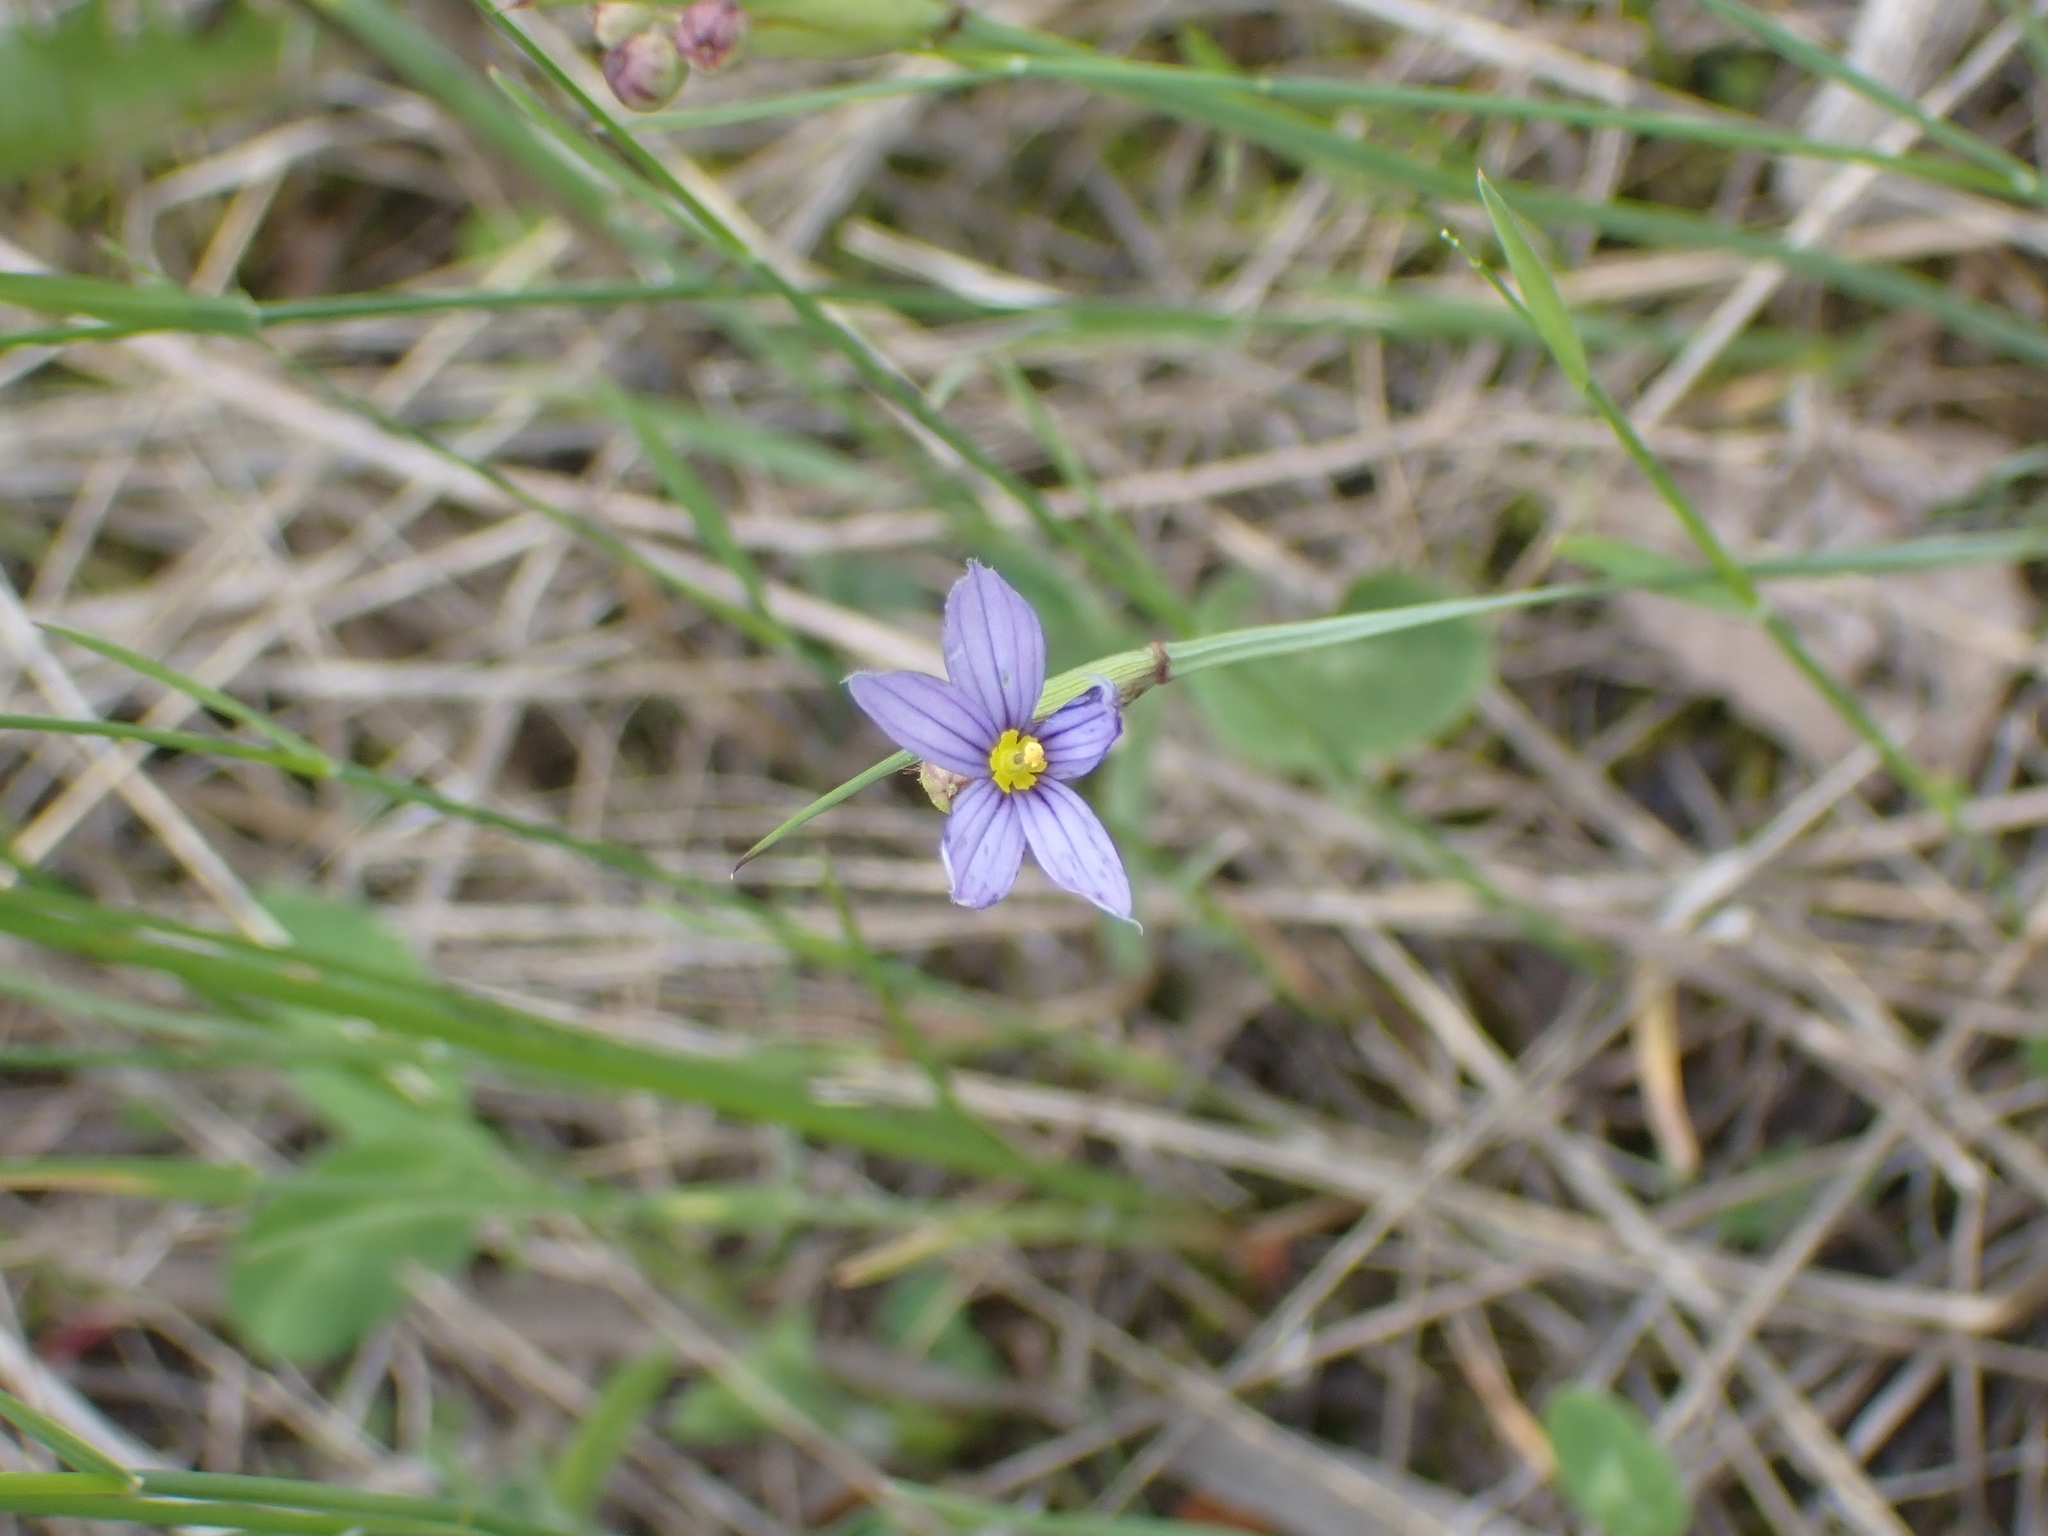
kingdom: Plantae
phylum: Tracheophyta
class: Liliopsida
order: Asparagales
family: Iridaceae
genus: Sisyrinchium
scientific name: Sisyrinchium montanum
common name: American blue-eyed-grass
